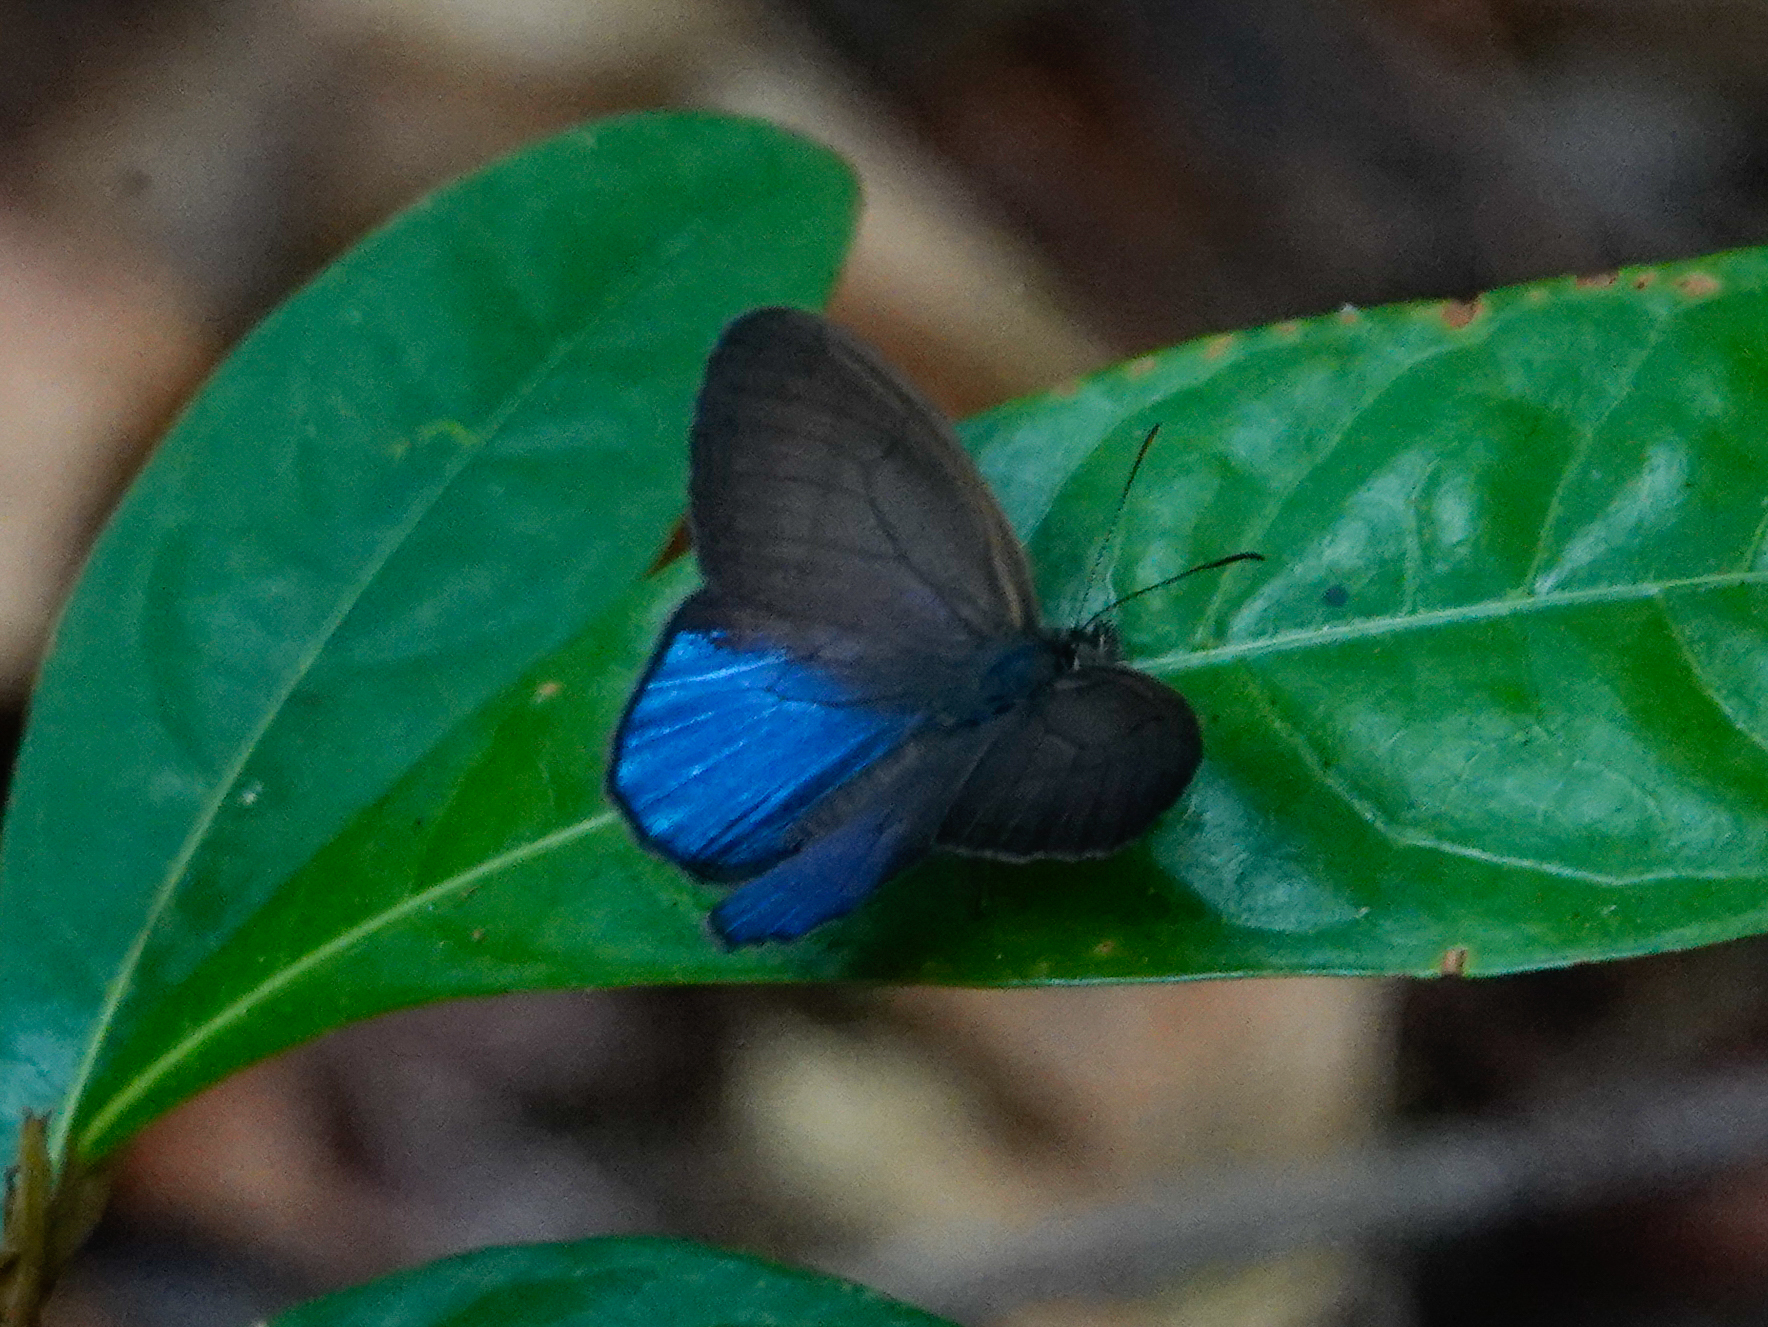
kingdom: Animalia
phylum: Arthropoda
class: Insecta
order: Lepidoptera
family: Nymphalidae
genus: Amiga
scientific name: Amiga arnaca
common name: Blue-topped satyr
